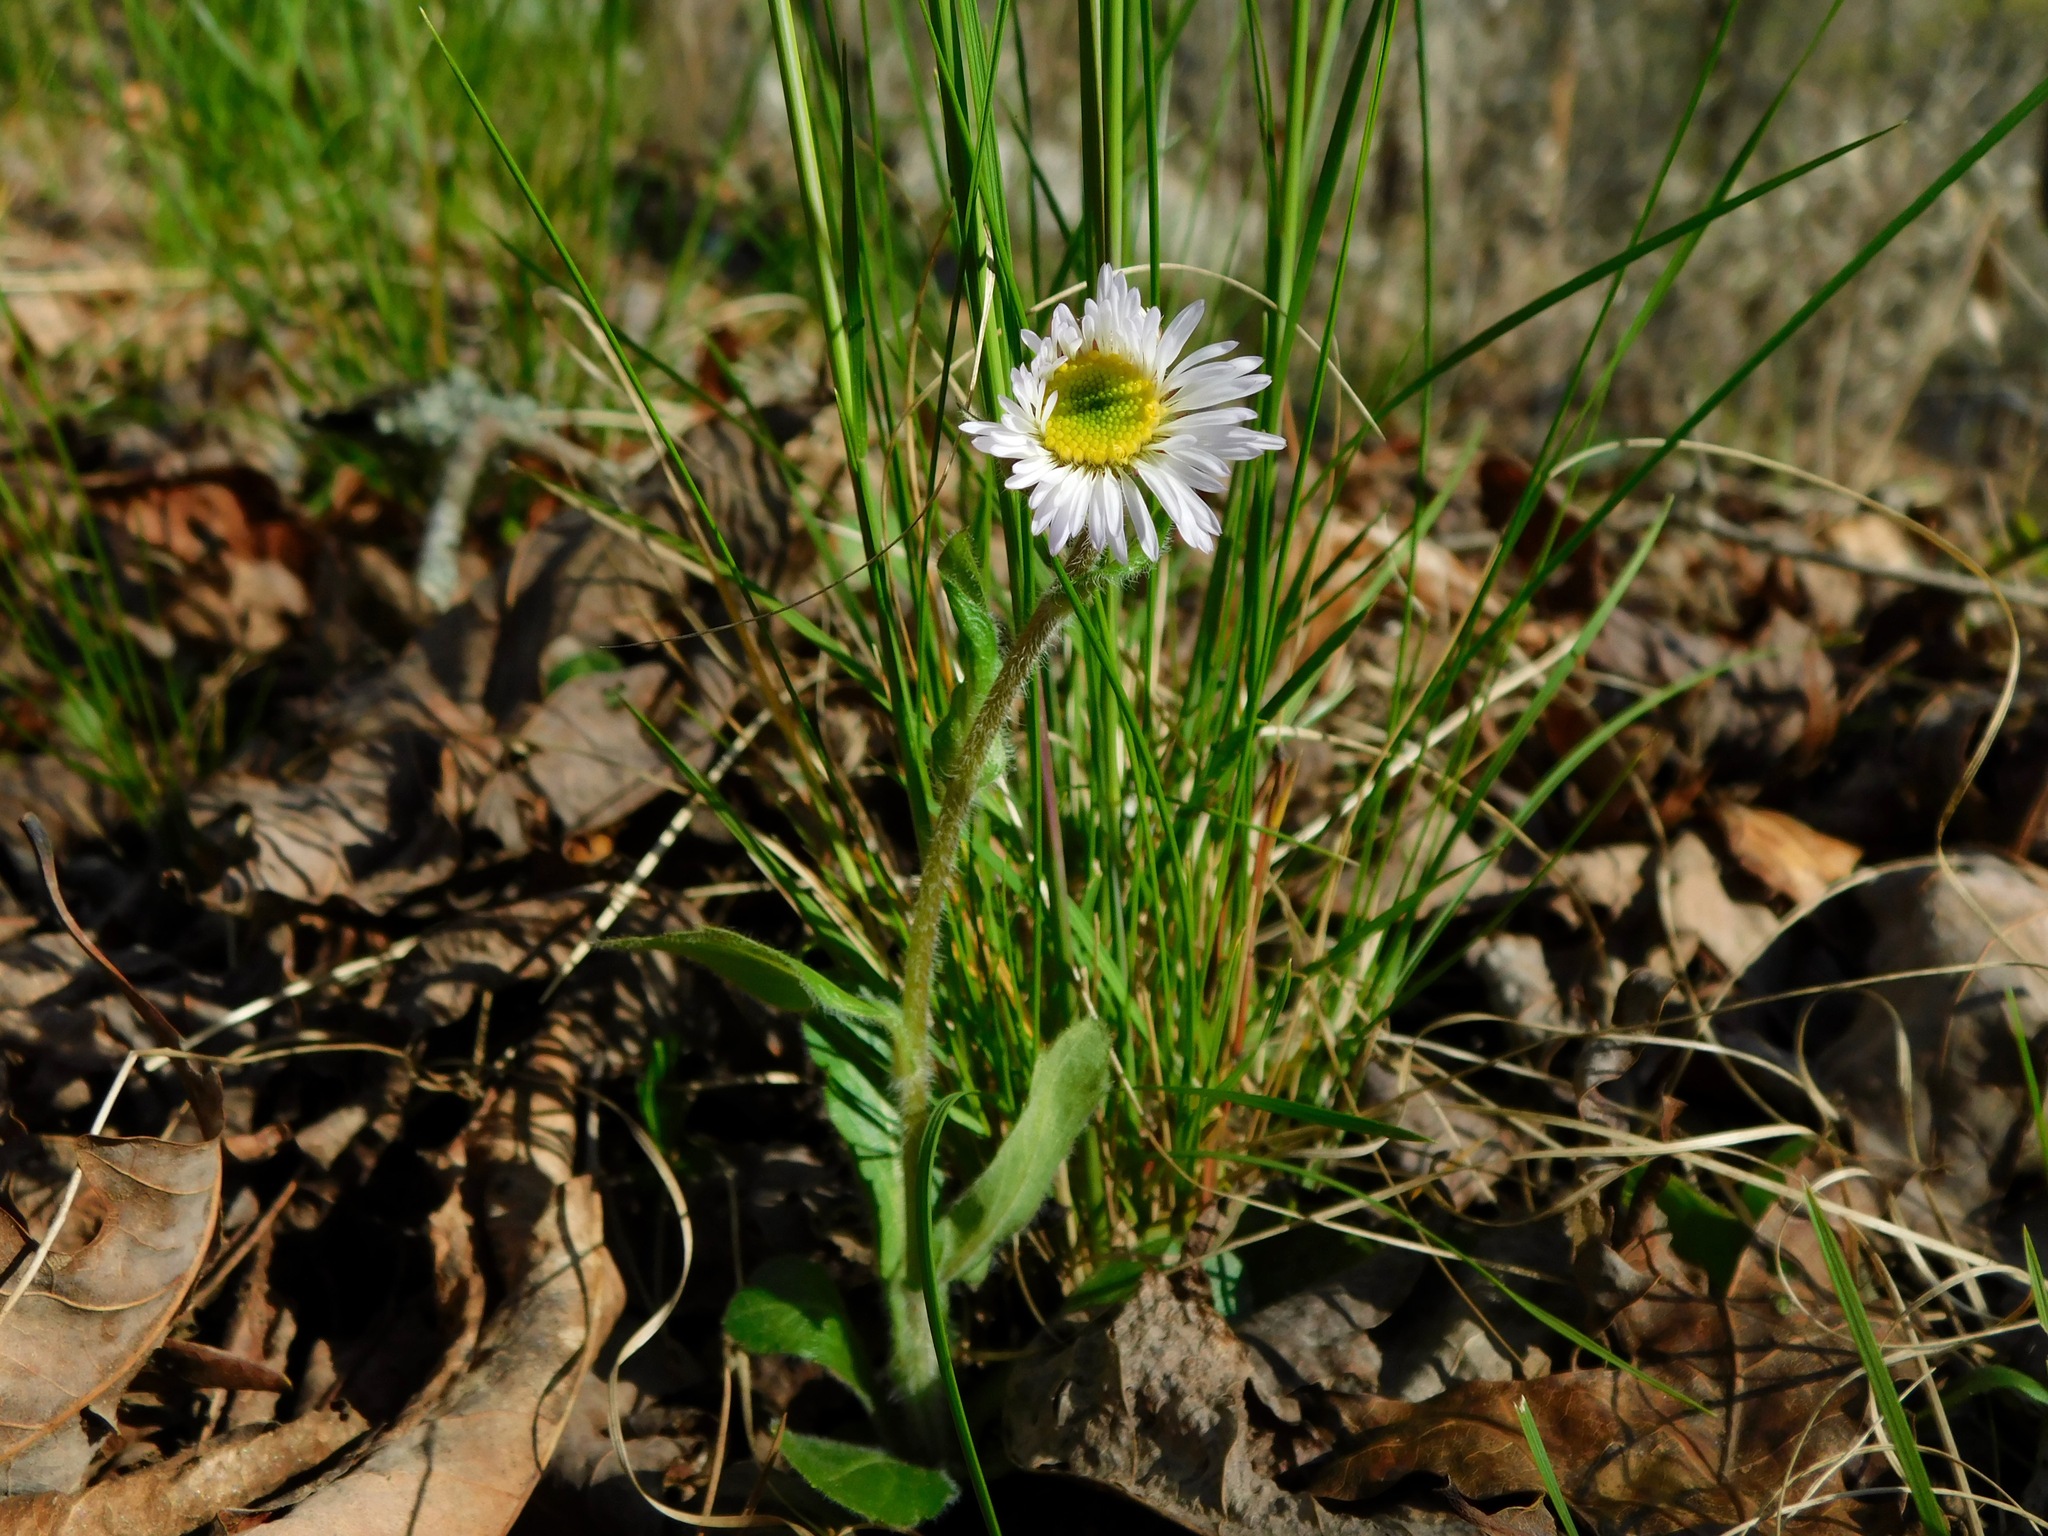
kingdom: Plantae
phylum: Tracheophyta
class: Magnoliopsida
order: Asterales
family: Asteraceae
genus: Erigeron
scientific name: Erigeron pulchellus
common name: Hairy fleabane
